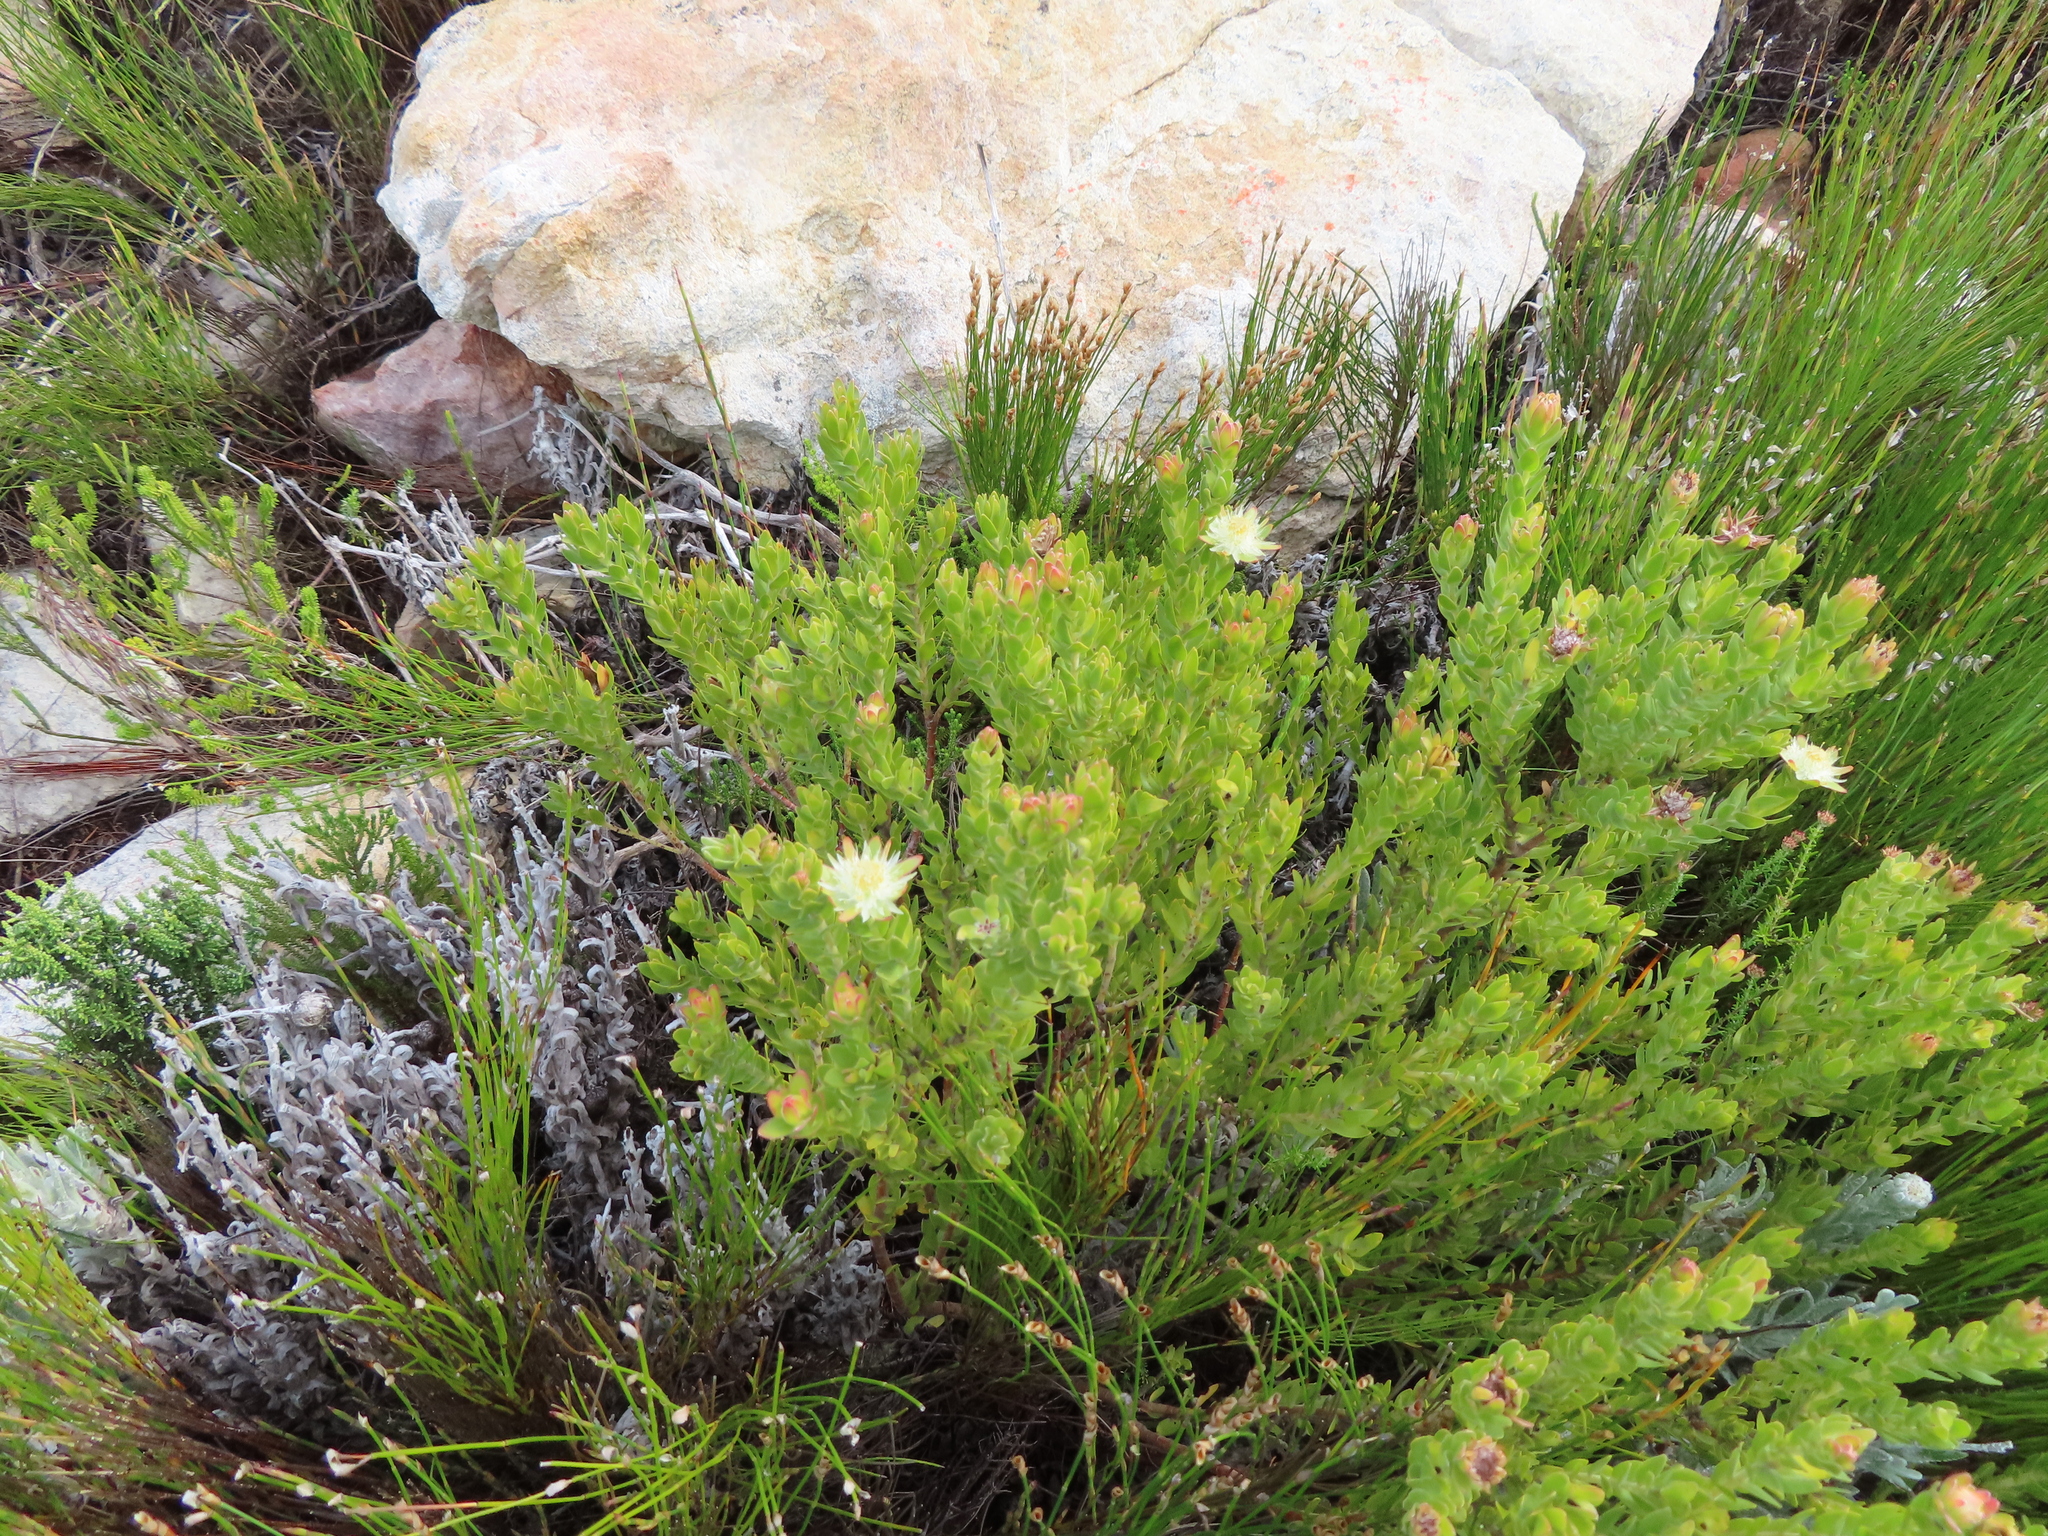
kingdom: Plantae
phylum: Tracheophyta
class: Magnoliopsida
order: Proteales
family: Proteaceae
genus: Diastella
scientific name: Diastella thymelaeoides
